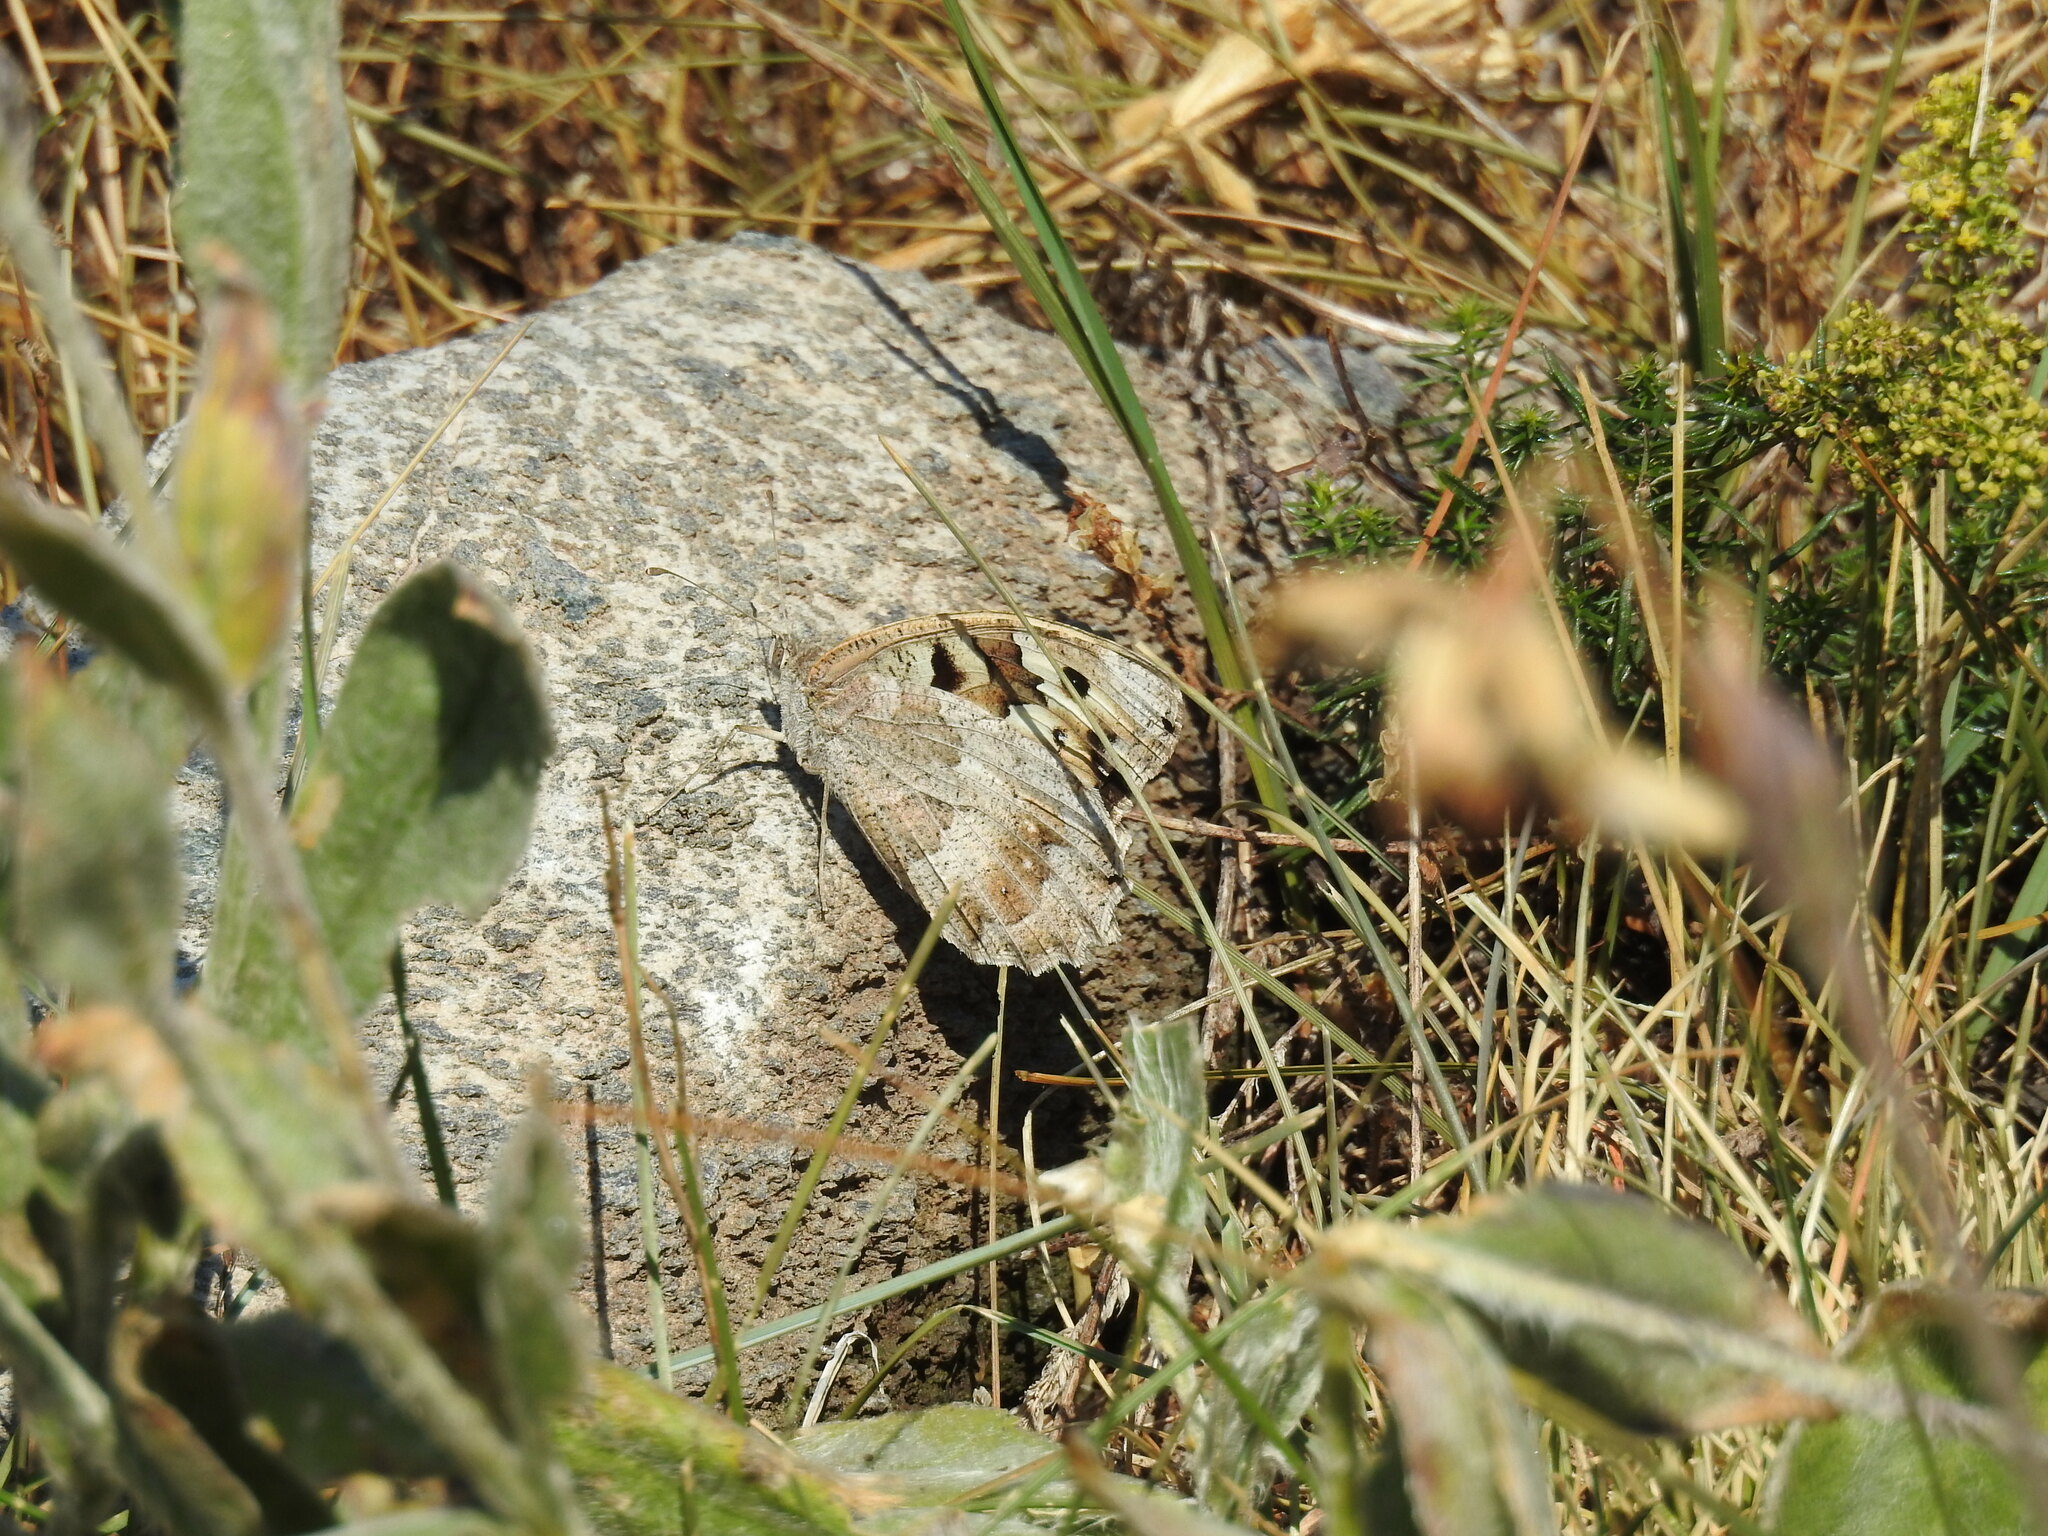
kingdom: Animalia
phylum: Arthropoda
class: Insecta
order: Lepidoptera
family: Nymphalidae
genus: Satyrus
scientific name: Satyrus briseis
